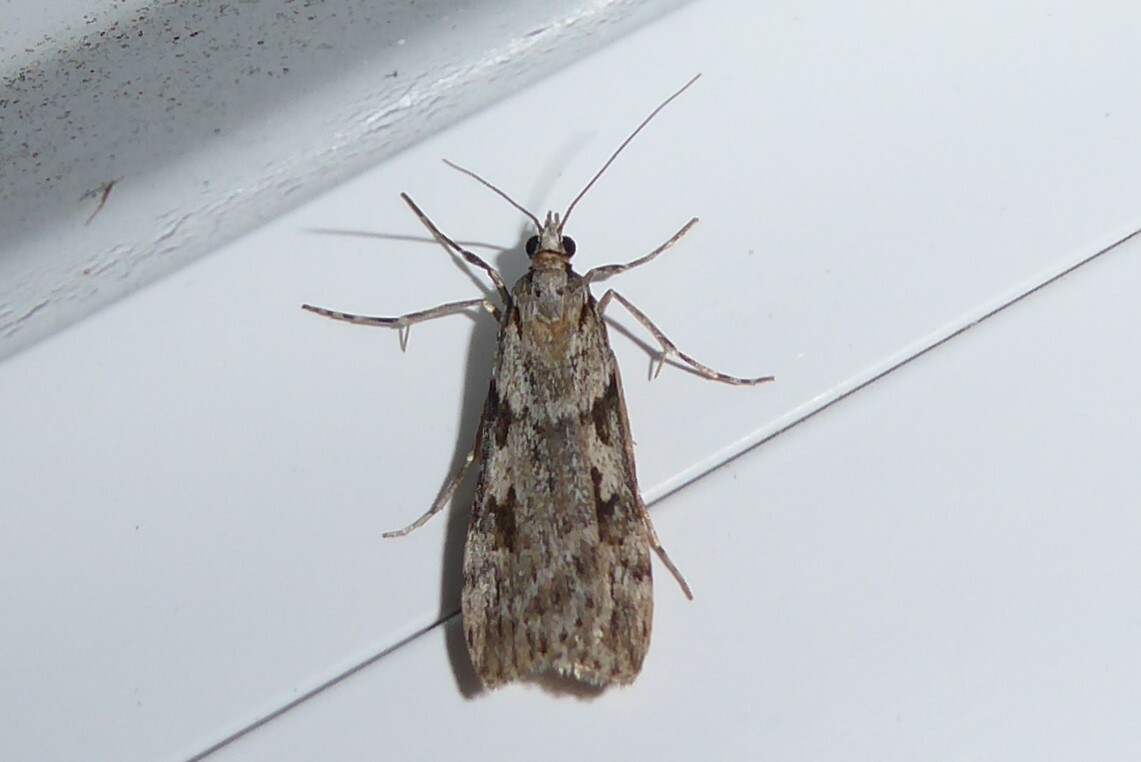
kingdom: Animalia
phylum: Arthropoda
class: Insecta
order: Lepidoptera
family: Crambidae
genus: Scoparia
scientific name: Scoparia halopis
